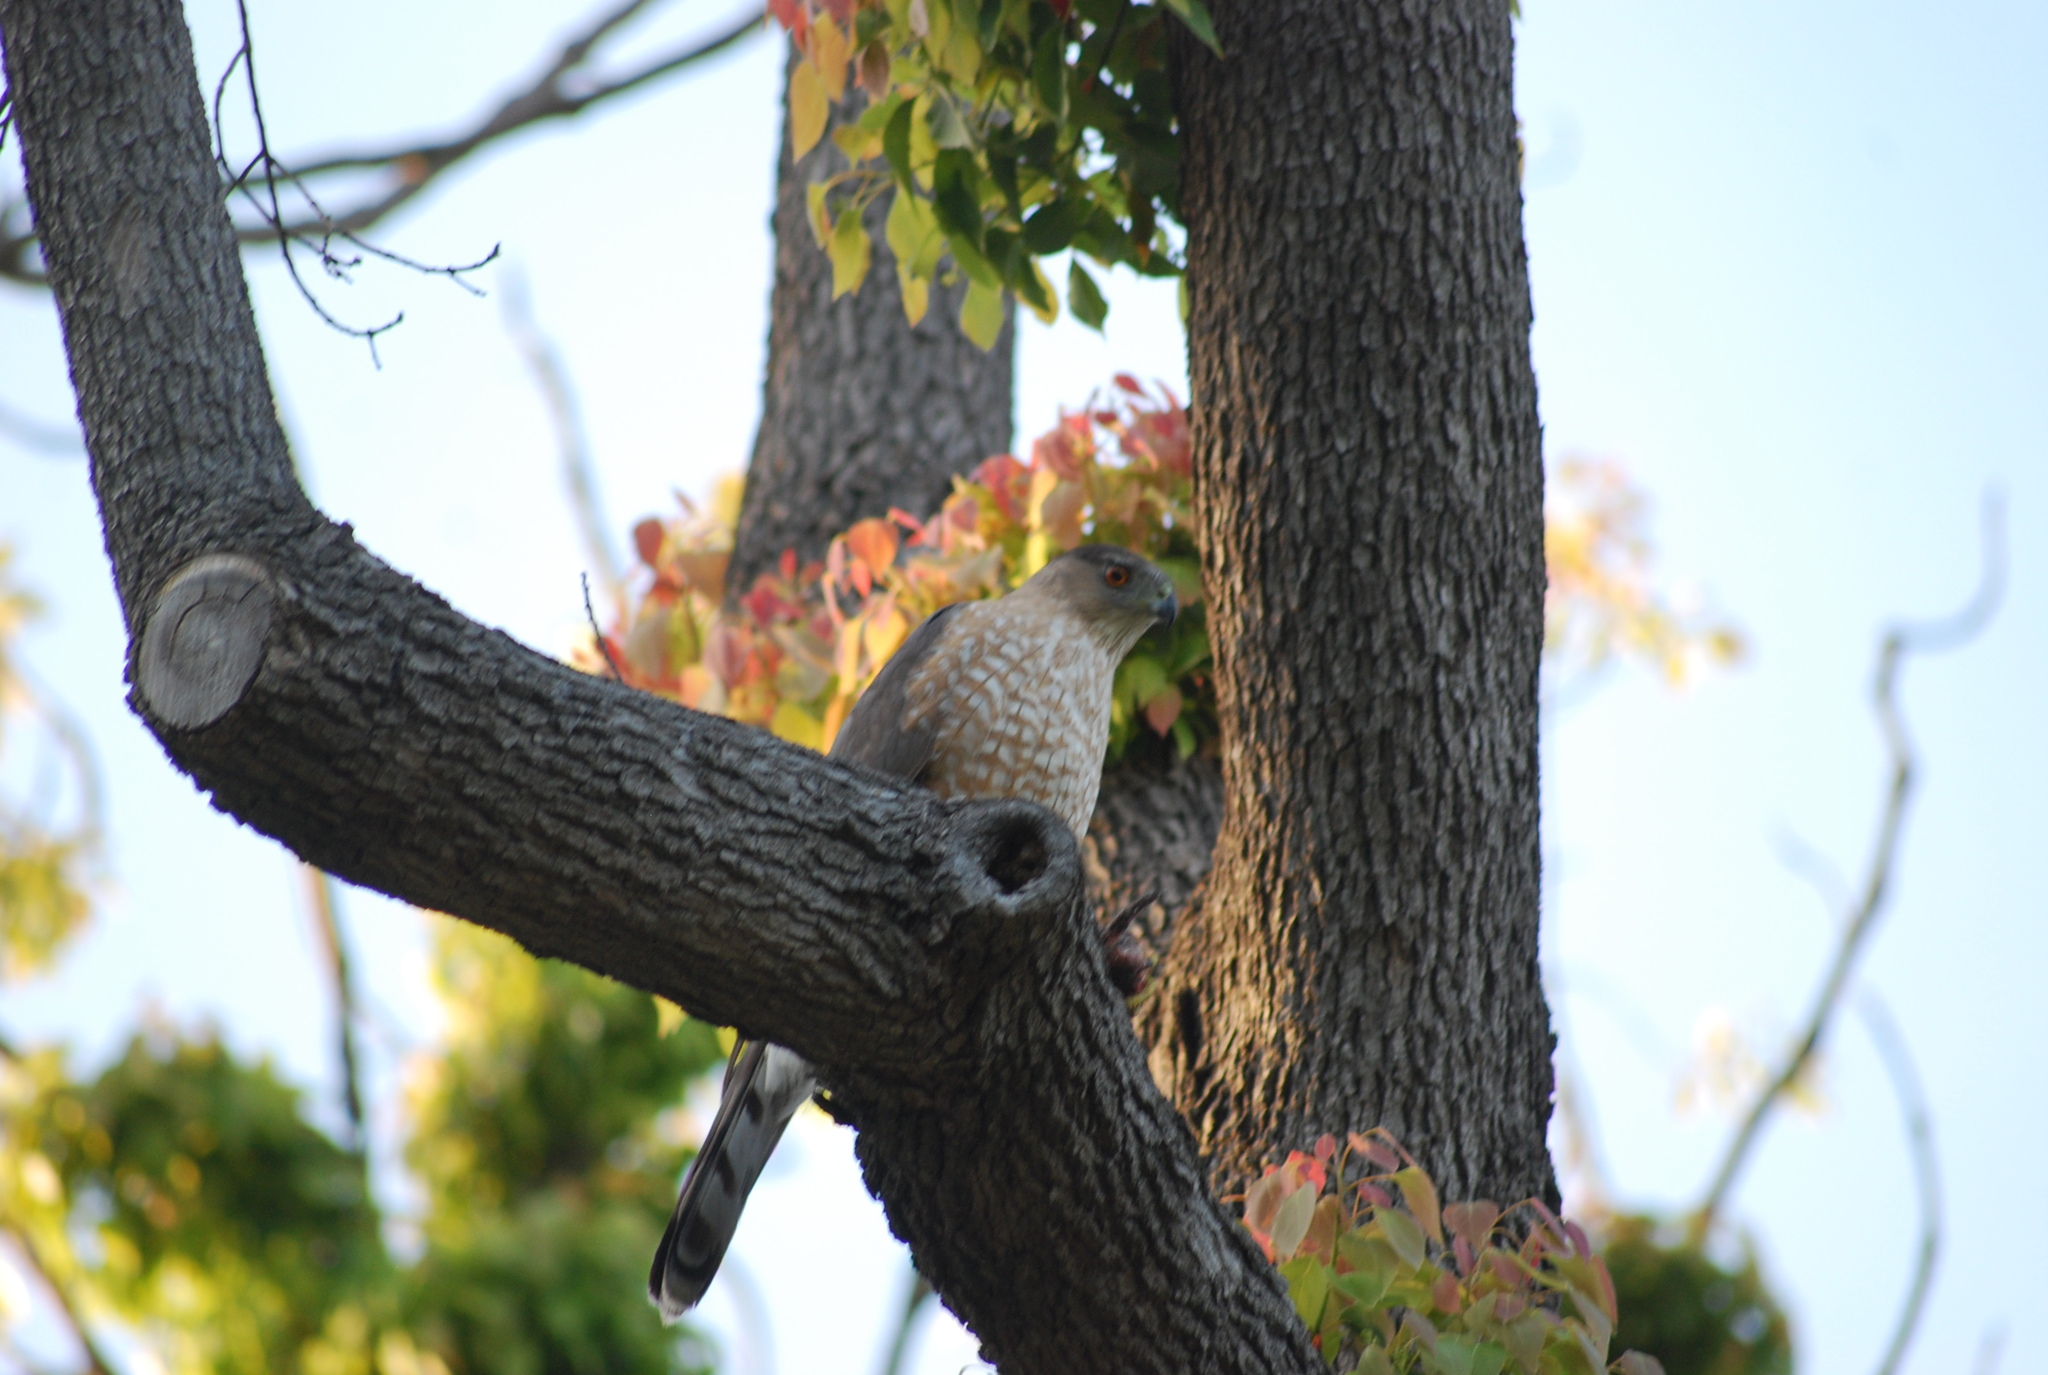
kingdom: Animalia
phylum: Chordata
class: Aves
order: Accipitriformes
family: Accipitridae
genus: Accipiter
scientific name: Accipiter cooperii
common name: Cooper's hawk
